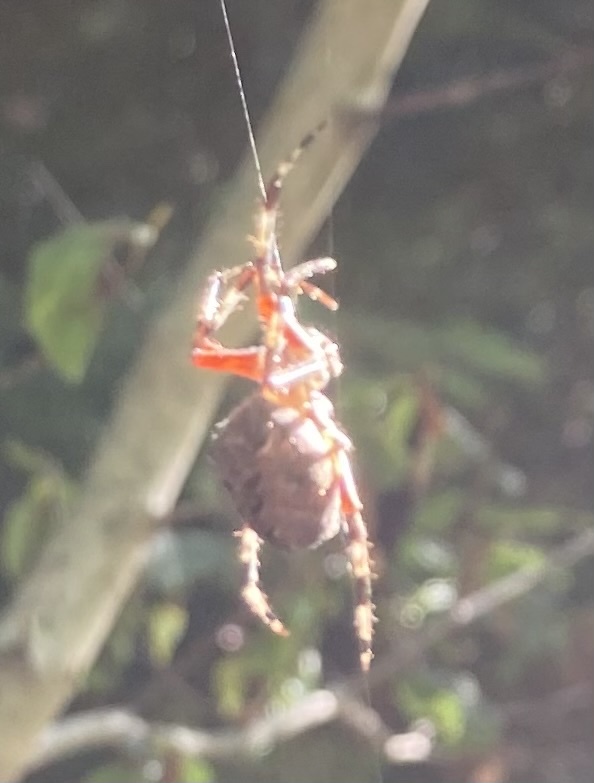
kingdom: Animalia
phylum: Arthropoda
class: Arachnida
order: Araneae
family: Araneidae
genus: Araneus
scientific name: Araneus nordmanni
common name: Nordmann's orbweaver
